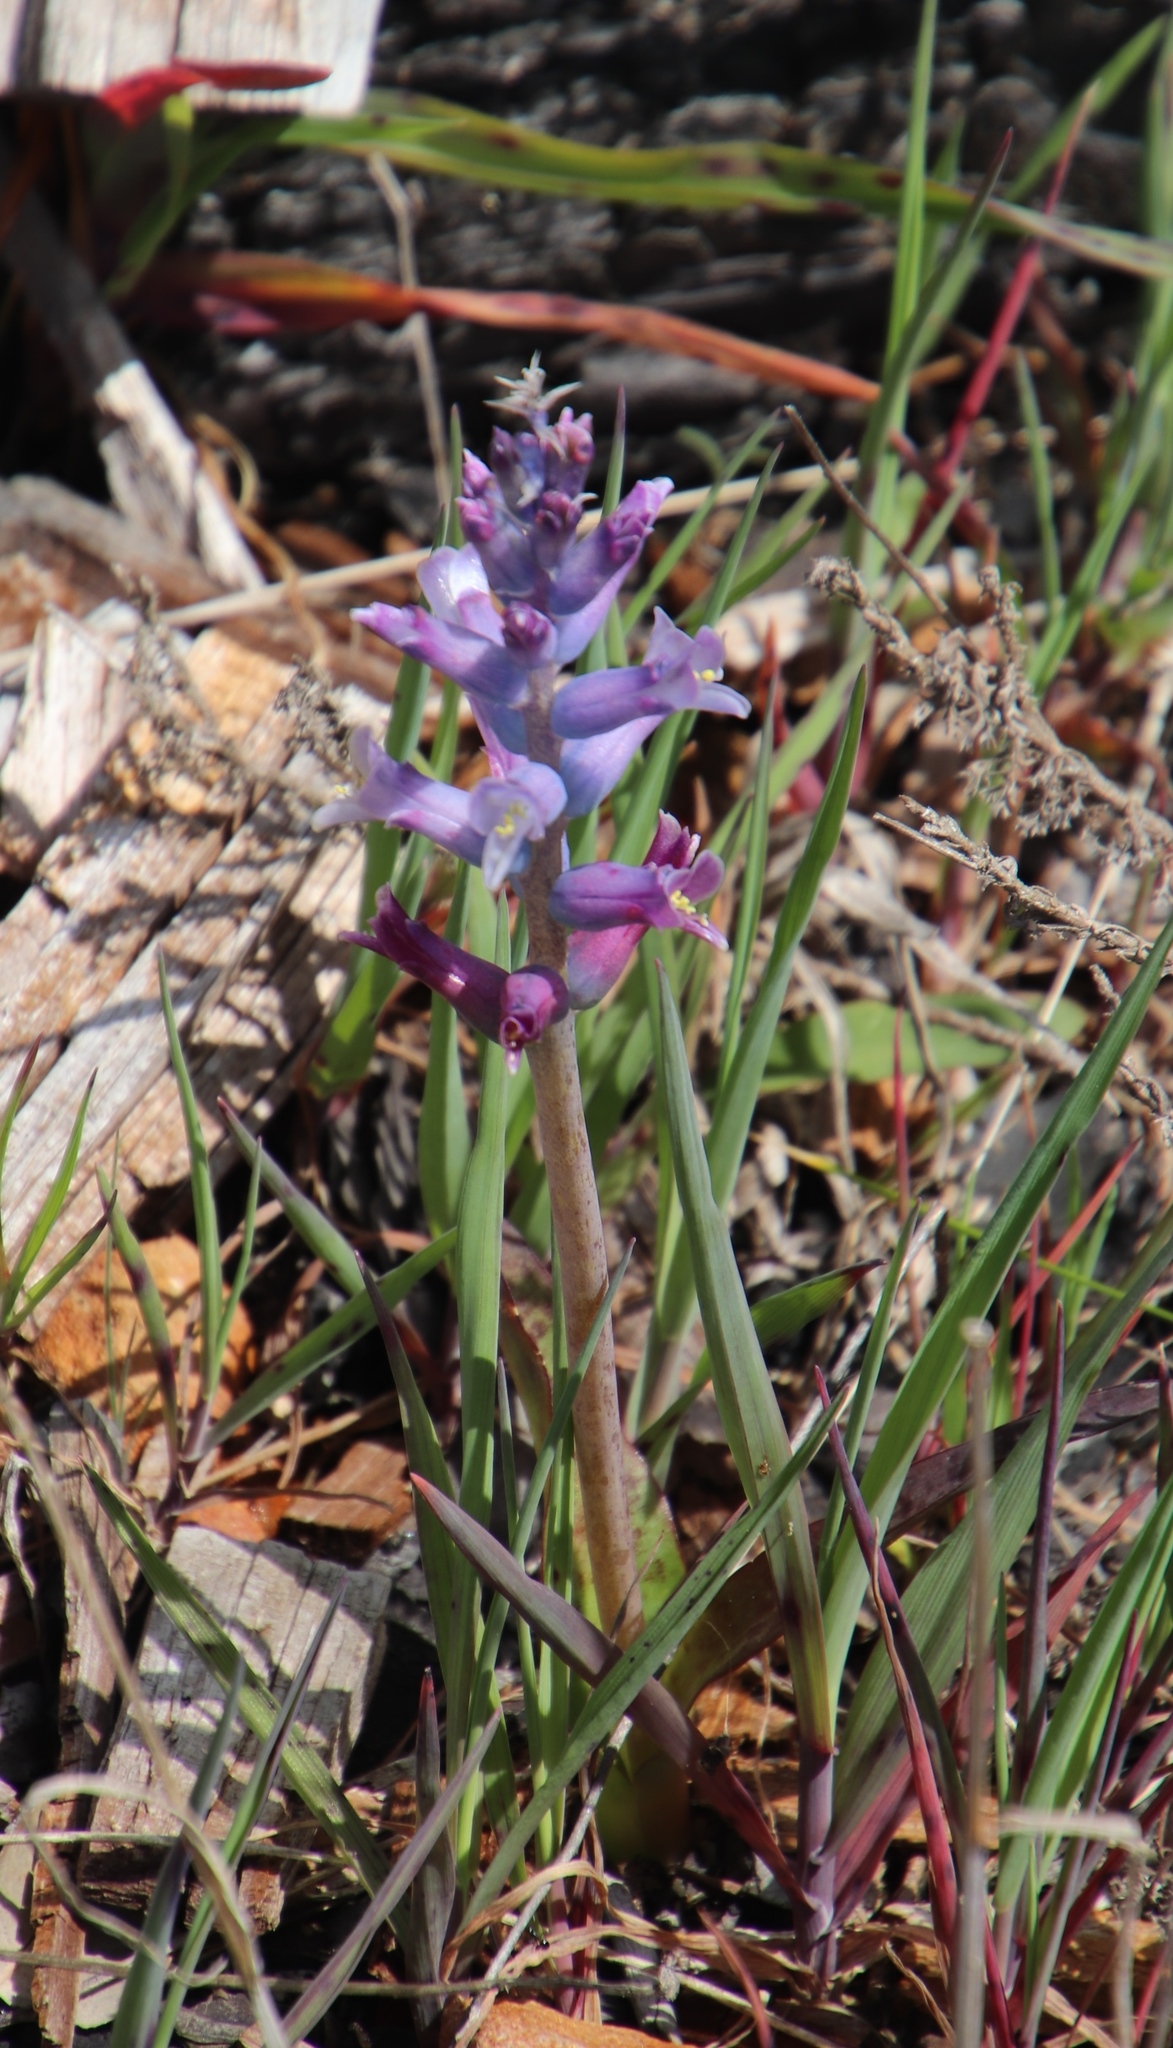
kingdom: Plantae
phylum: Tracheophyta
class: Liliopsida
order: Asparagales
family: Asparagaceae
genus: Lachenalia
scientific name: Lachenalia glaucina
